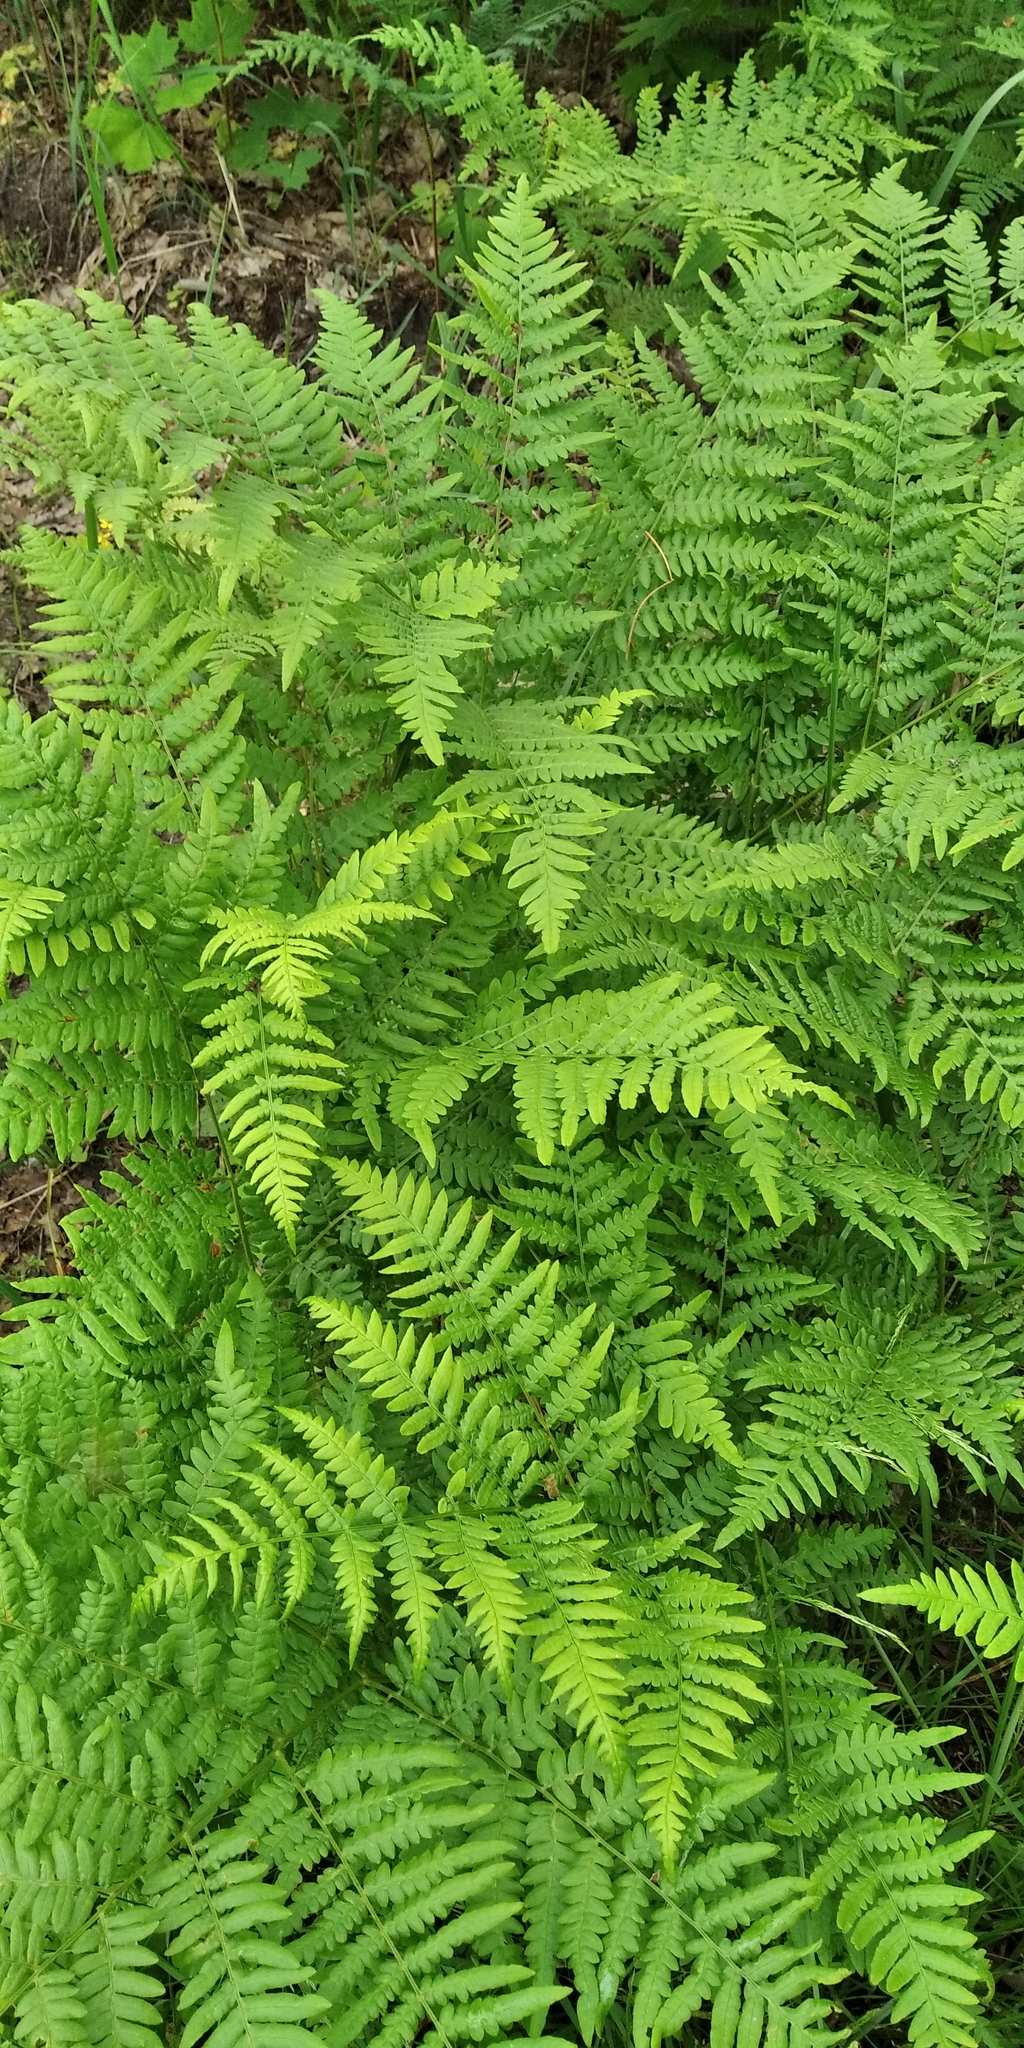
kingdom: Plantae
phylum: Tracheophyta
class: Polypodiopsida
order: Polypodiales
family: Dennstaedtiaceae
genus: Pteridium
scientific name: Pteridium aquilinum
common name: Bracken
